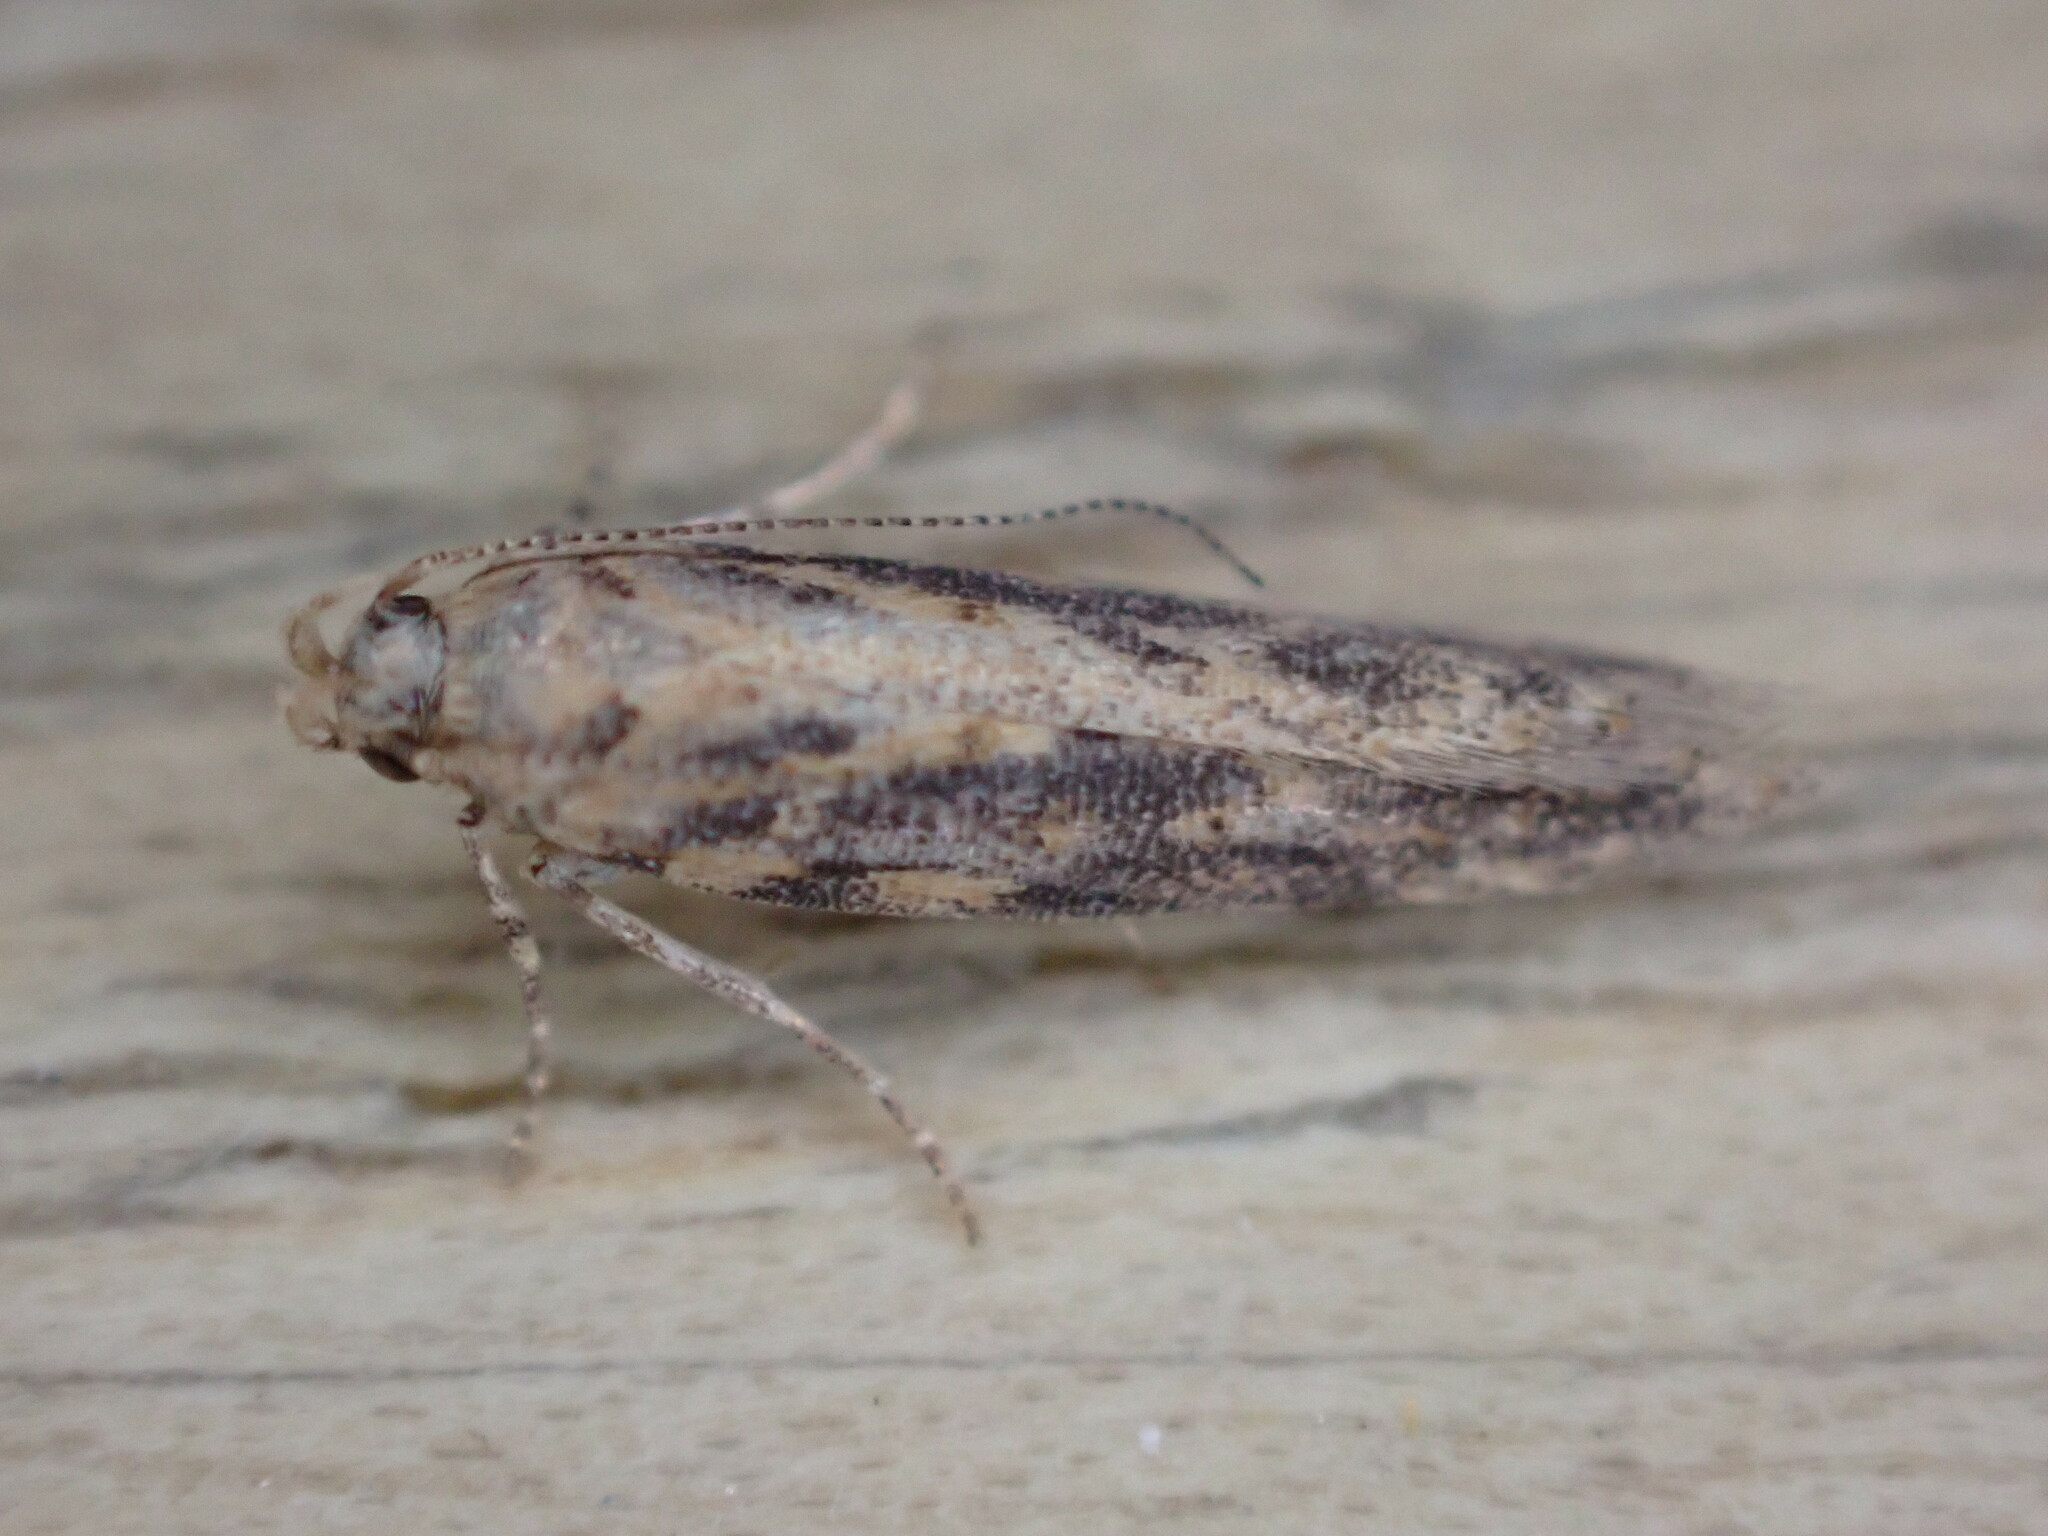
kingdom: Animalia
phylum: Arthropoda
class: Insecta
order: Lepidoptera
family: Gelechiidae
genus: Scrobipalpa
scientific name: Scrobipalpa ocellatella
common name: Beet moth
